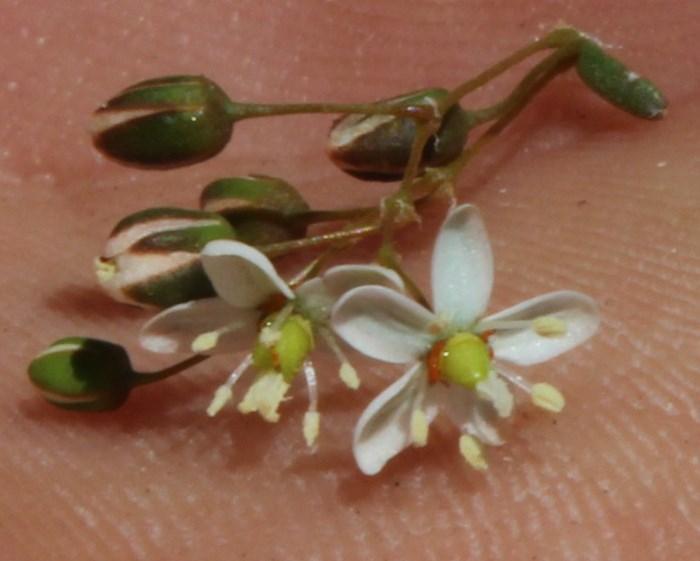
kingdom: Plantae
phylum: Tracheophyta
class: Magnoliopsida
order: Caryophyllales
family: Molluginaceae
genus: Pharnaceum
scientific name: Pharnaceum elongatum
